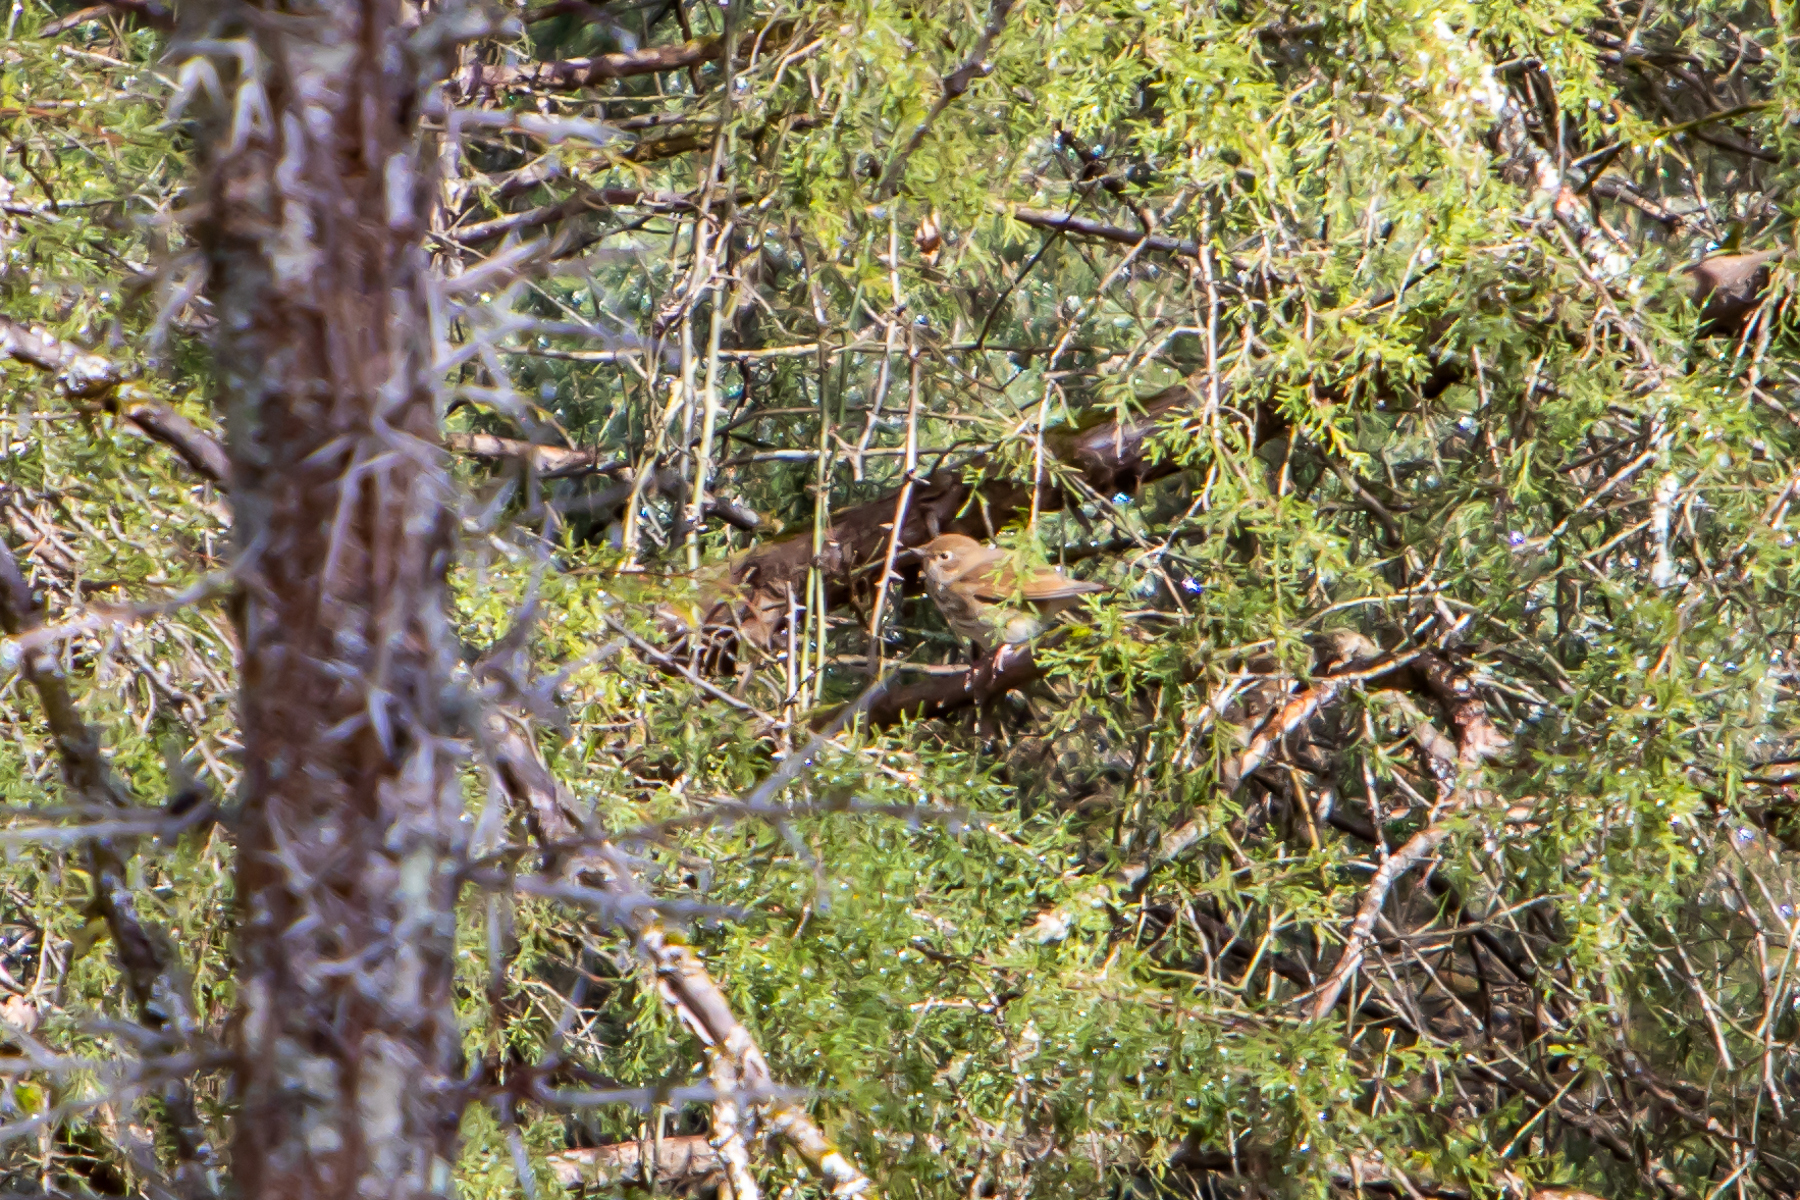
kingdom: Animalia
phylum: Chordata
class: Aves
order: Passeriformes
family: Parulidae
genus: Setophaga
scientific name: Setophaga coronata
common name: Myrtle warbler
